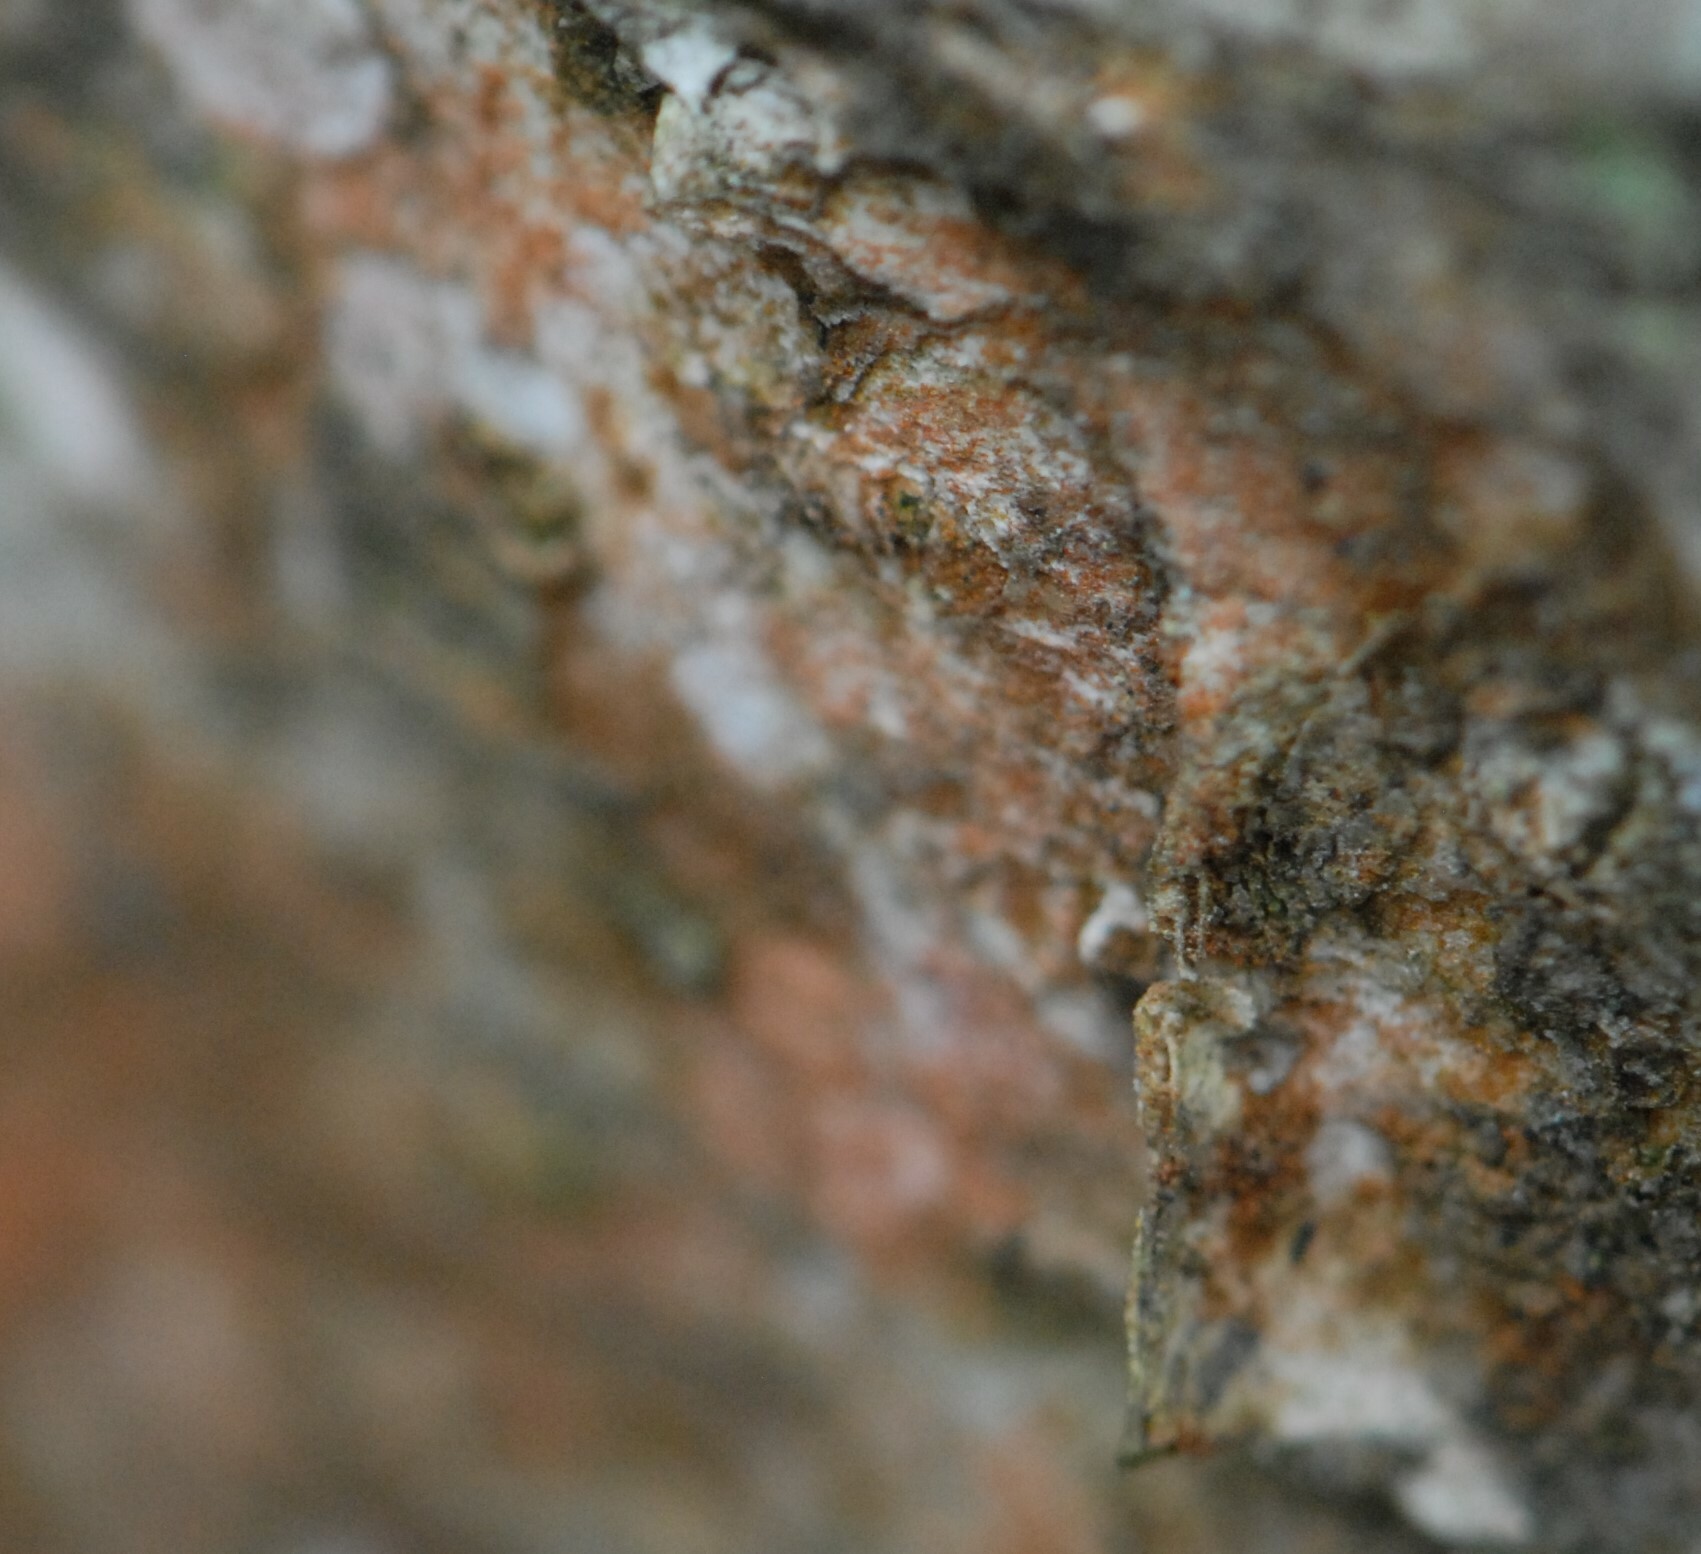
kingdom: Plantae
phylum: Chlorophyta
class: Ulvophyceae
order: Trentepohliales
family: Trentepohliaceae
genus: Trentepohlia
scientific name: Trentepohlia
